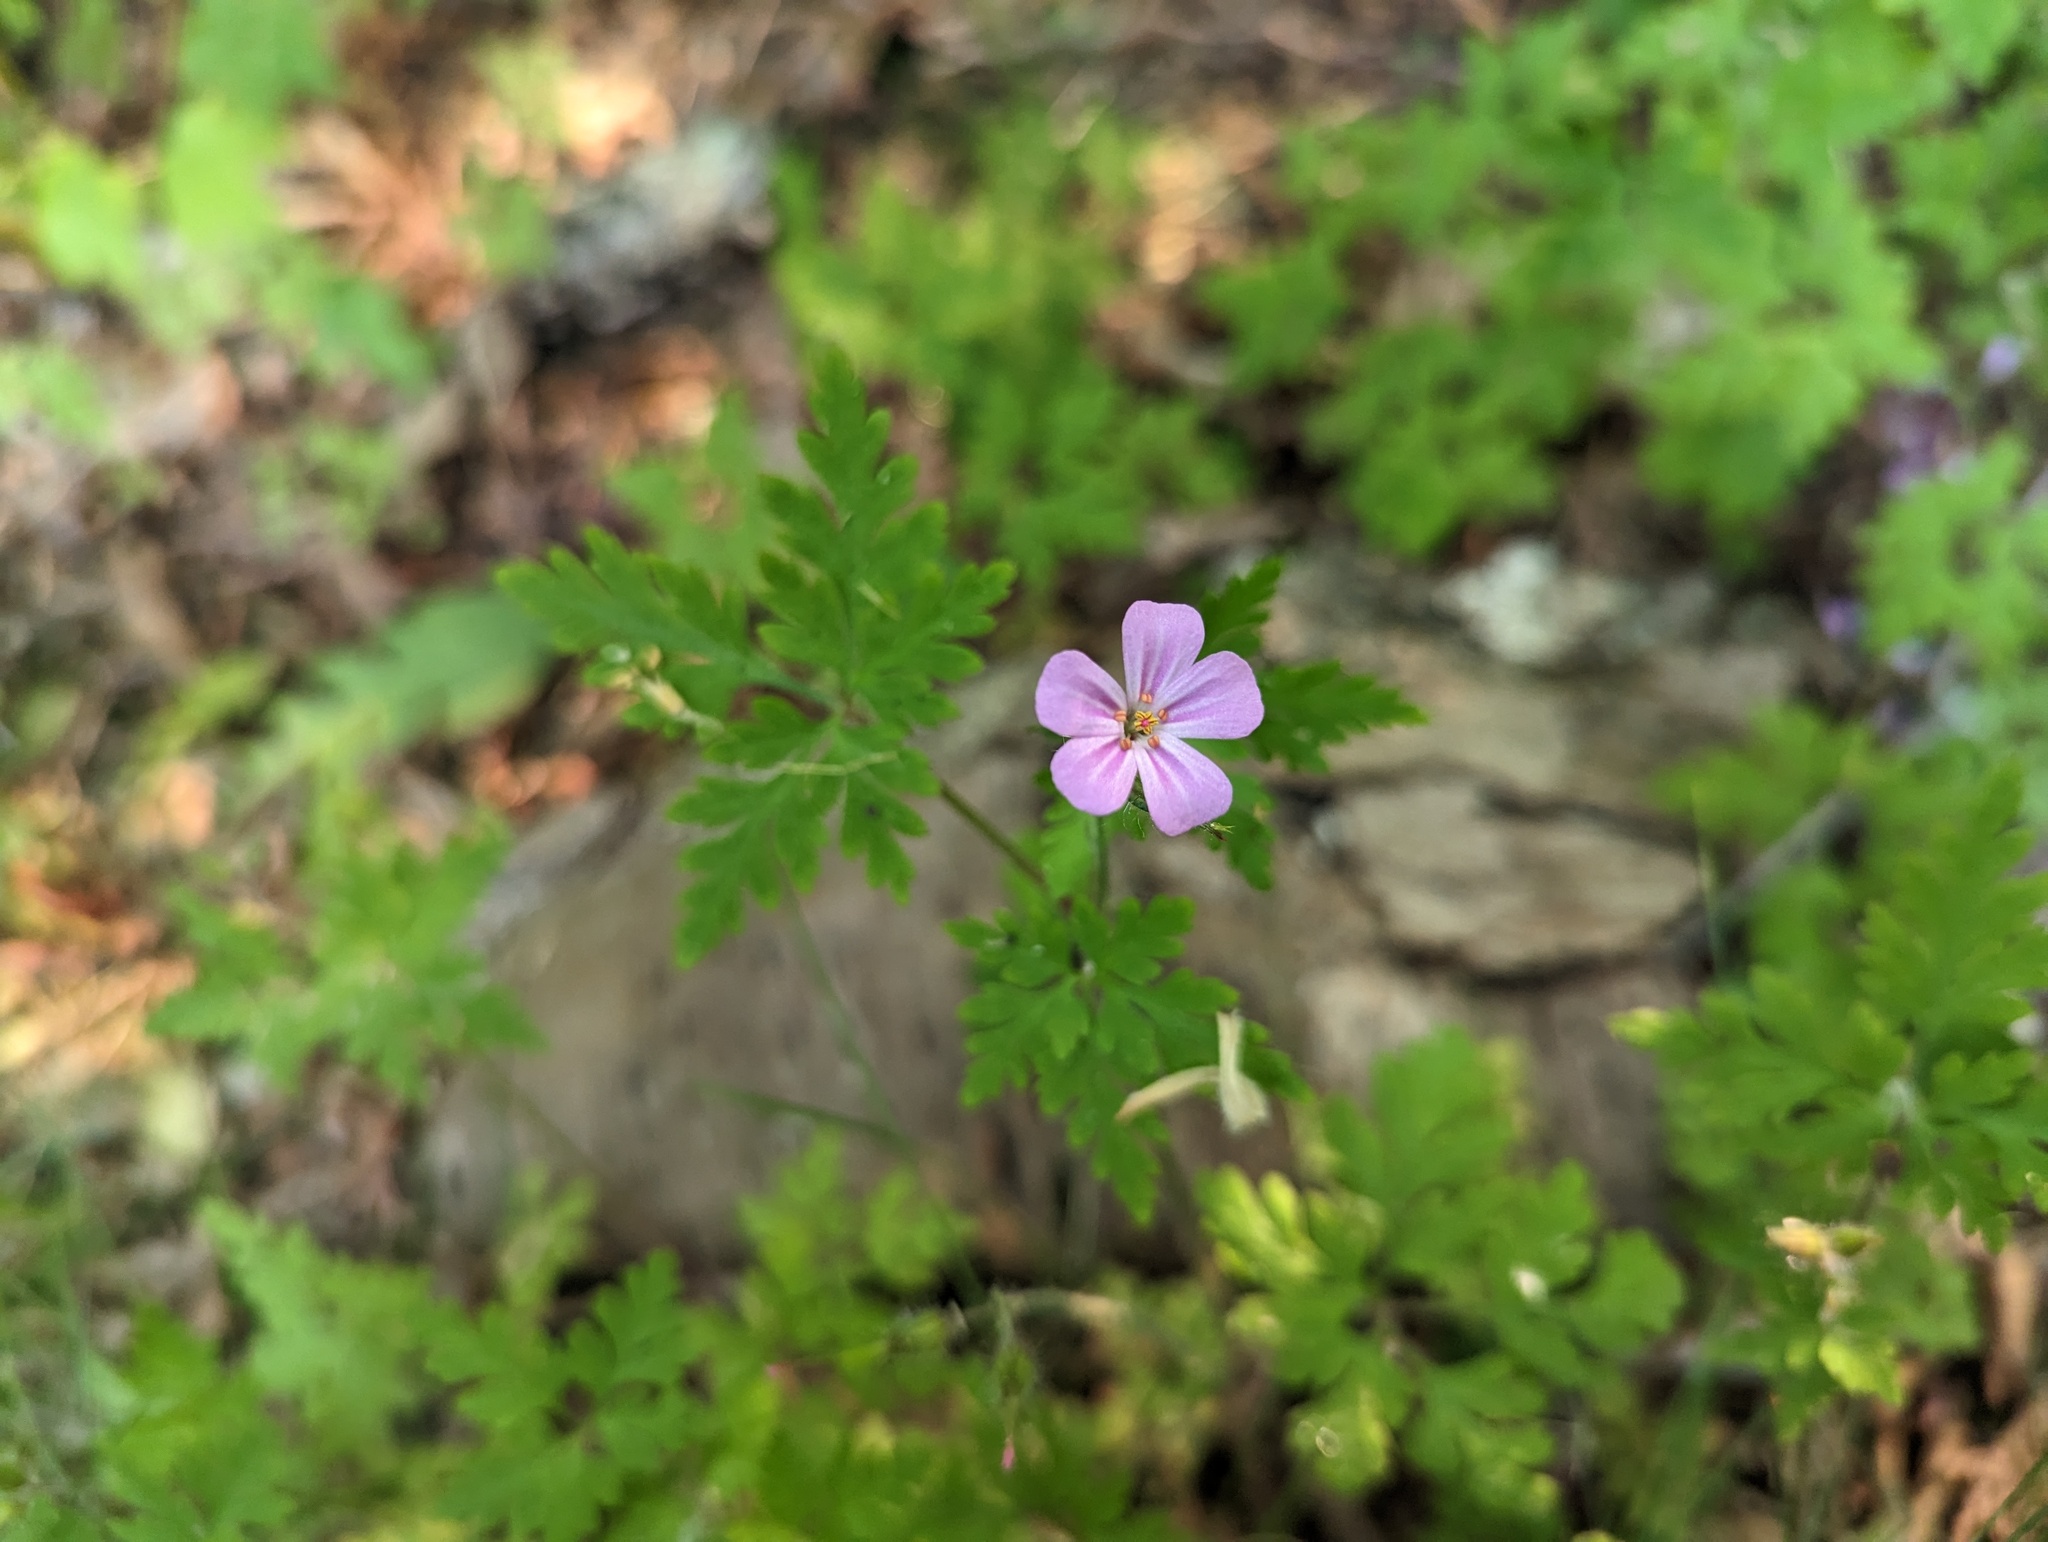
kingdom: Plantae
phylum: Tracheophyta
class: Magnoliopsida
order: Geraniales
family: Geraniaceae
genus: Geranium
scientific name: Geranium robertianum
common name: Herb-robert
